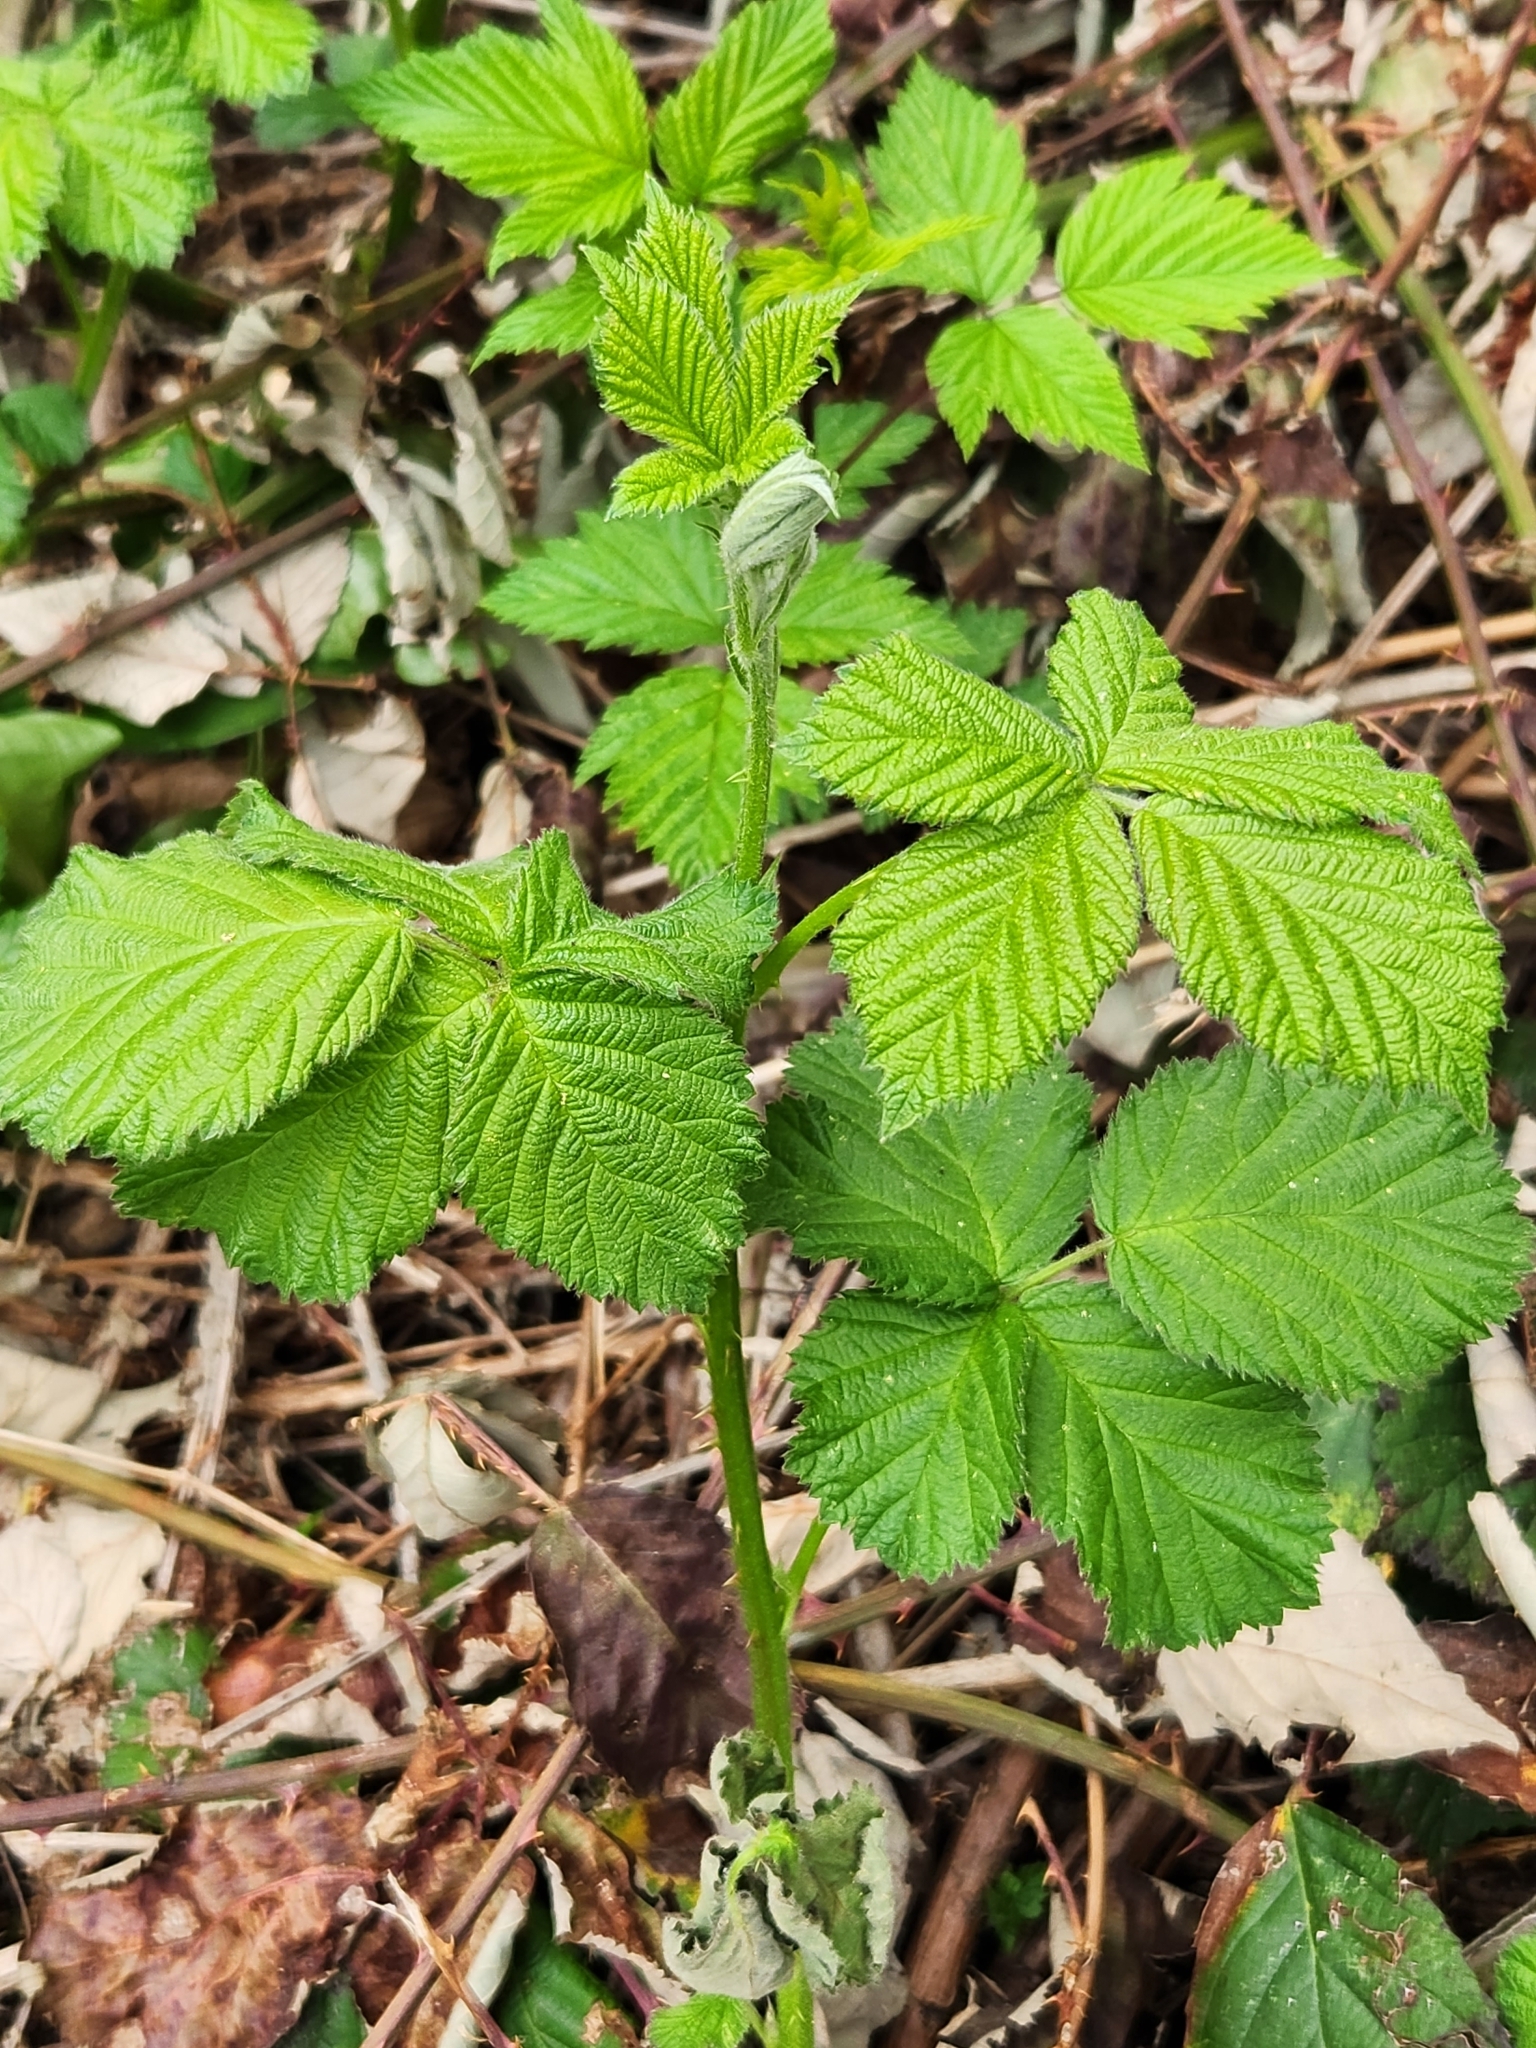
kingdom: Plantae
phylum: Tracheophyta
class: Magnoliopsida
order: Rosales
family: Rosaceae
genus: Rubus
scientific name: Rubus bifrons
